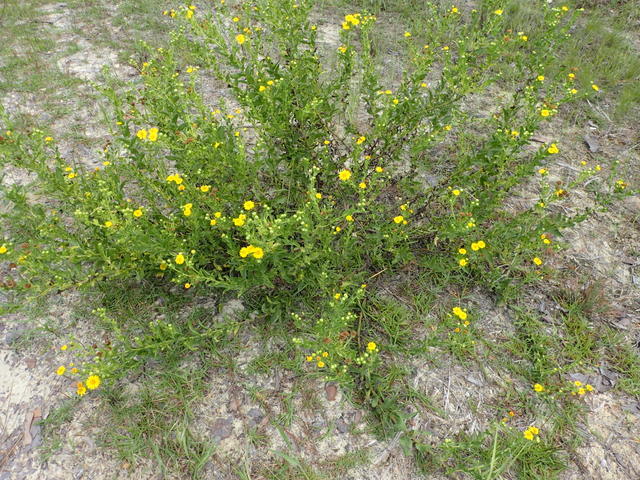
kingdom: Plantae
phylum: Tracheophyta
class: Magnoliopsida
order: Asterales
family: Asteraceae
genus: Heterotheca
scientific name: Heterotheca subaxillaris
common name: Camphorweed
